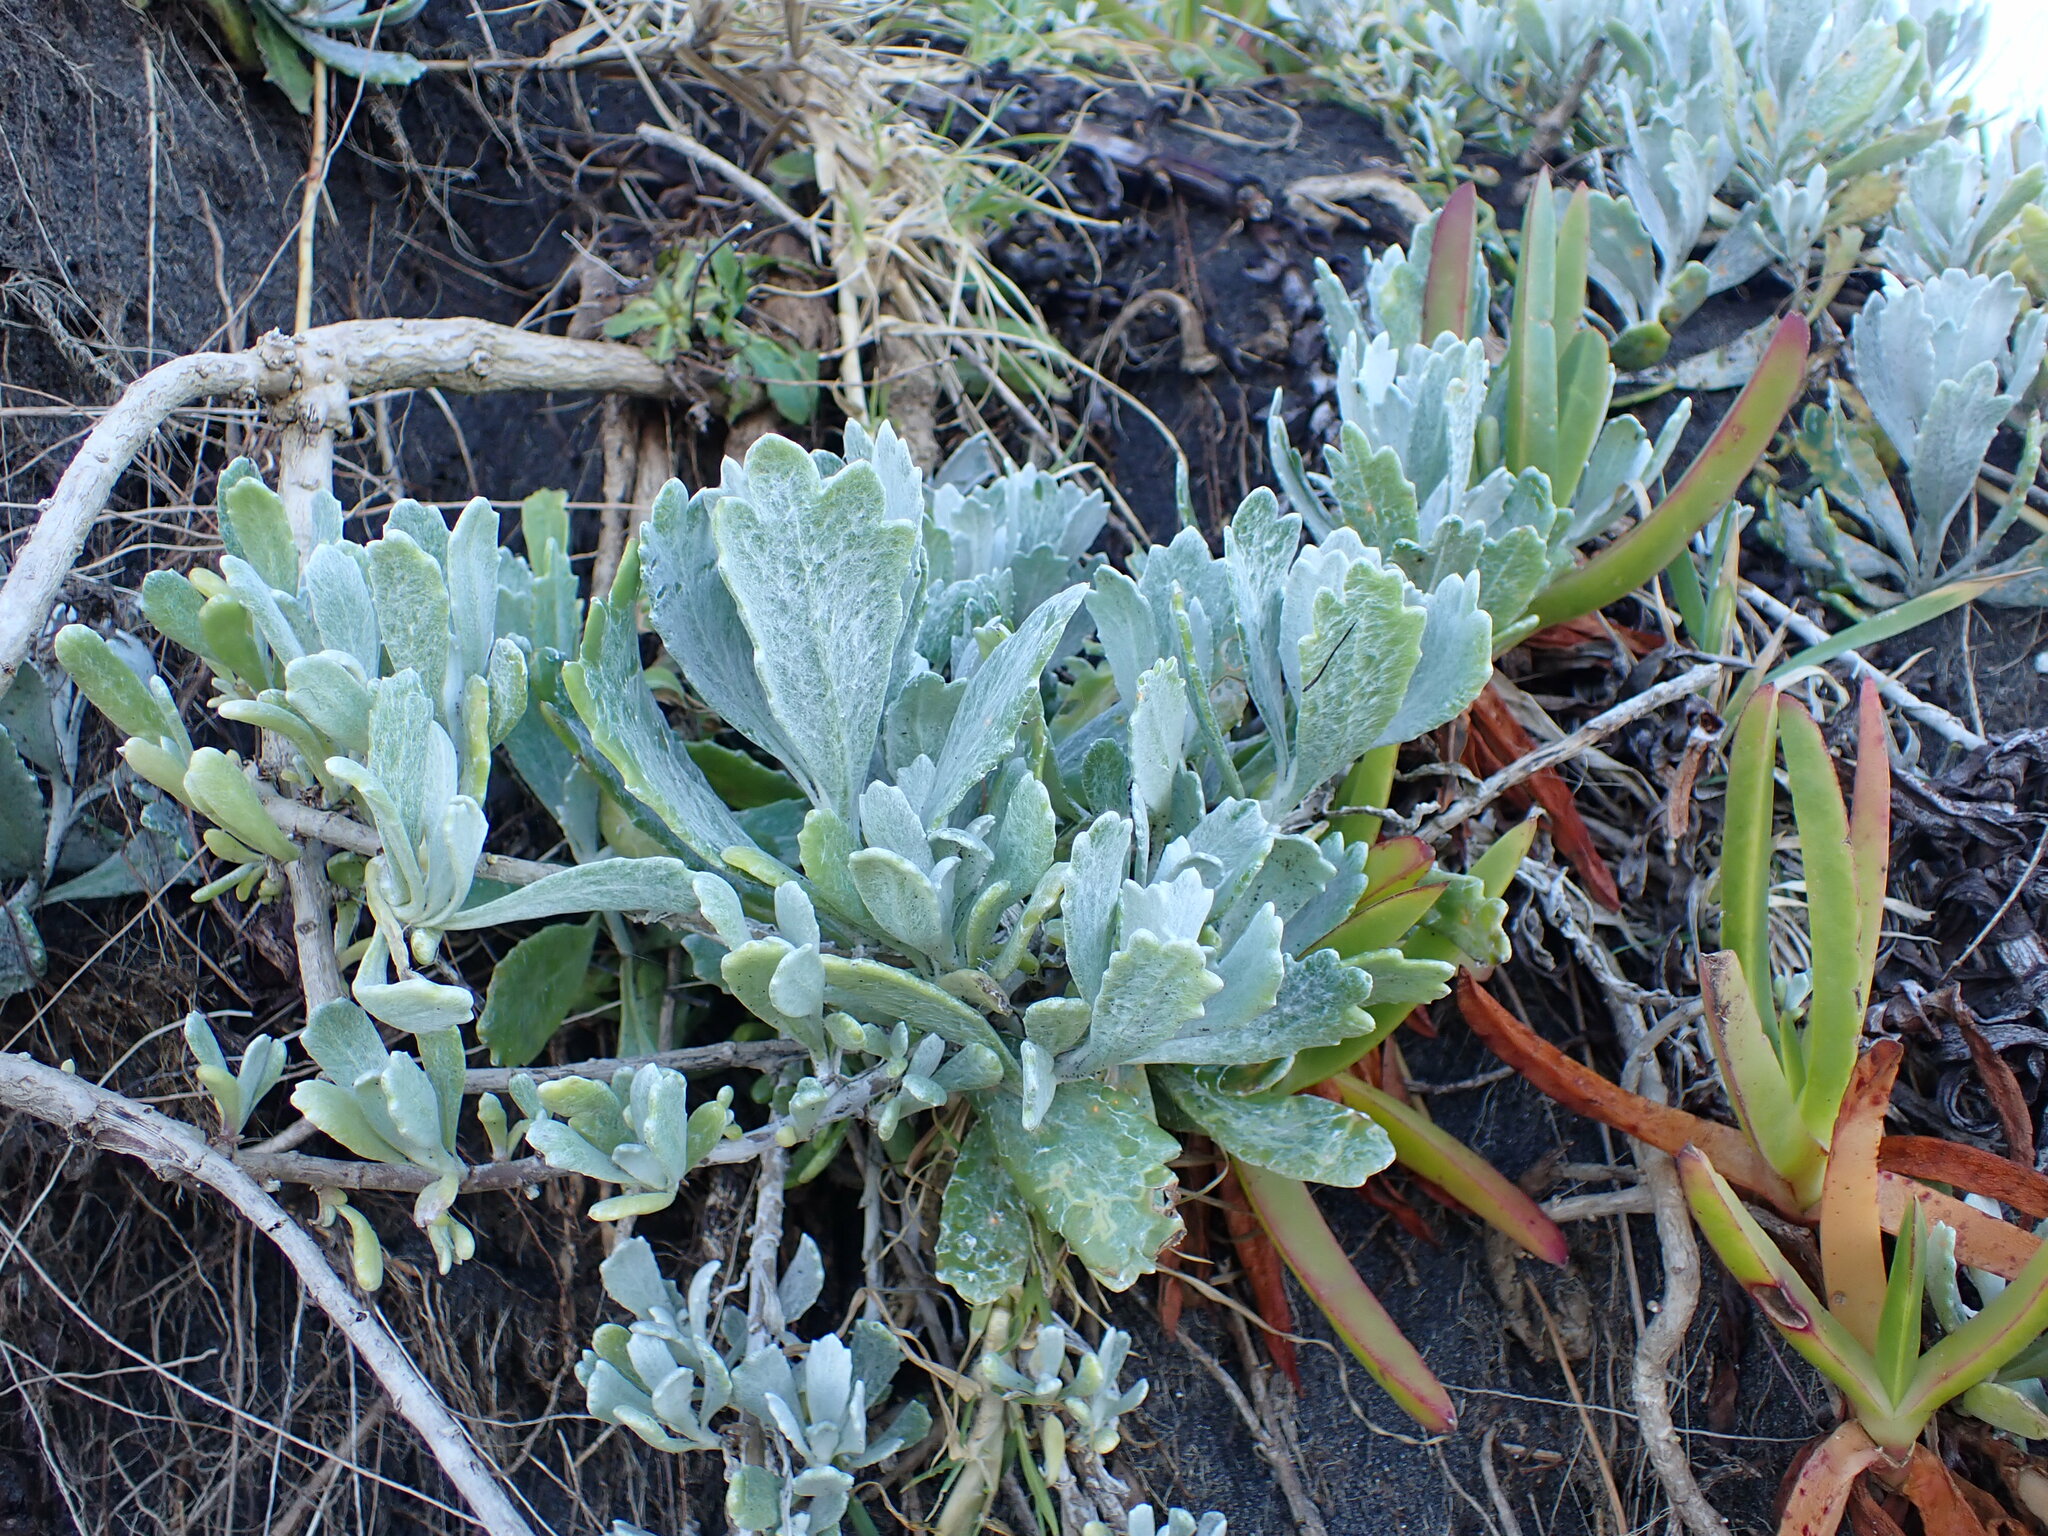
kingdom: Plantae
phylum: Tracheophyta
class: Magnoliopsida
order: Asterales
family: Asteraceae
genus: Senecio
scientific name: Senecio crassiflorus
